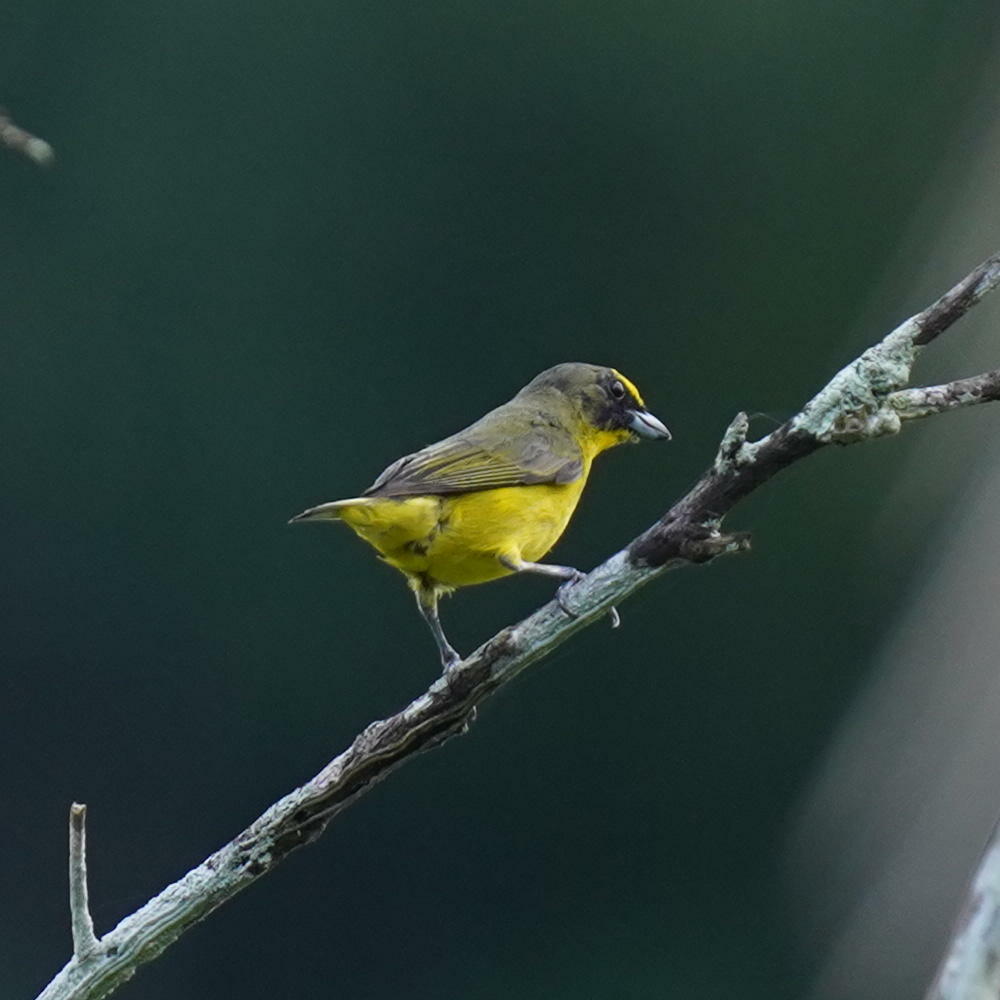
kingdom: Animalia
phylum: Chordata
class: Aves
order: Passeriformes
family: Fringillidae
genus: Euphonia
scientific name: Euphonia laniirostris
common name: Thick-billed euphonia
